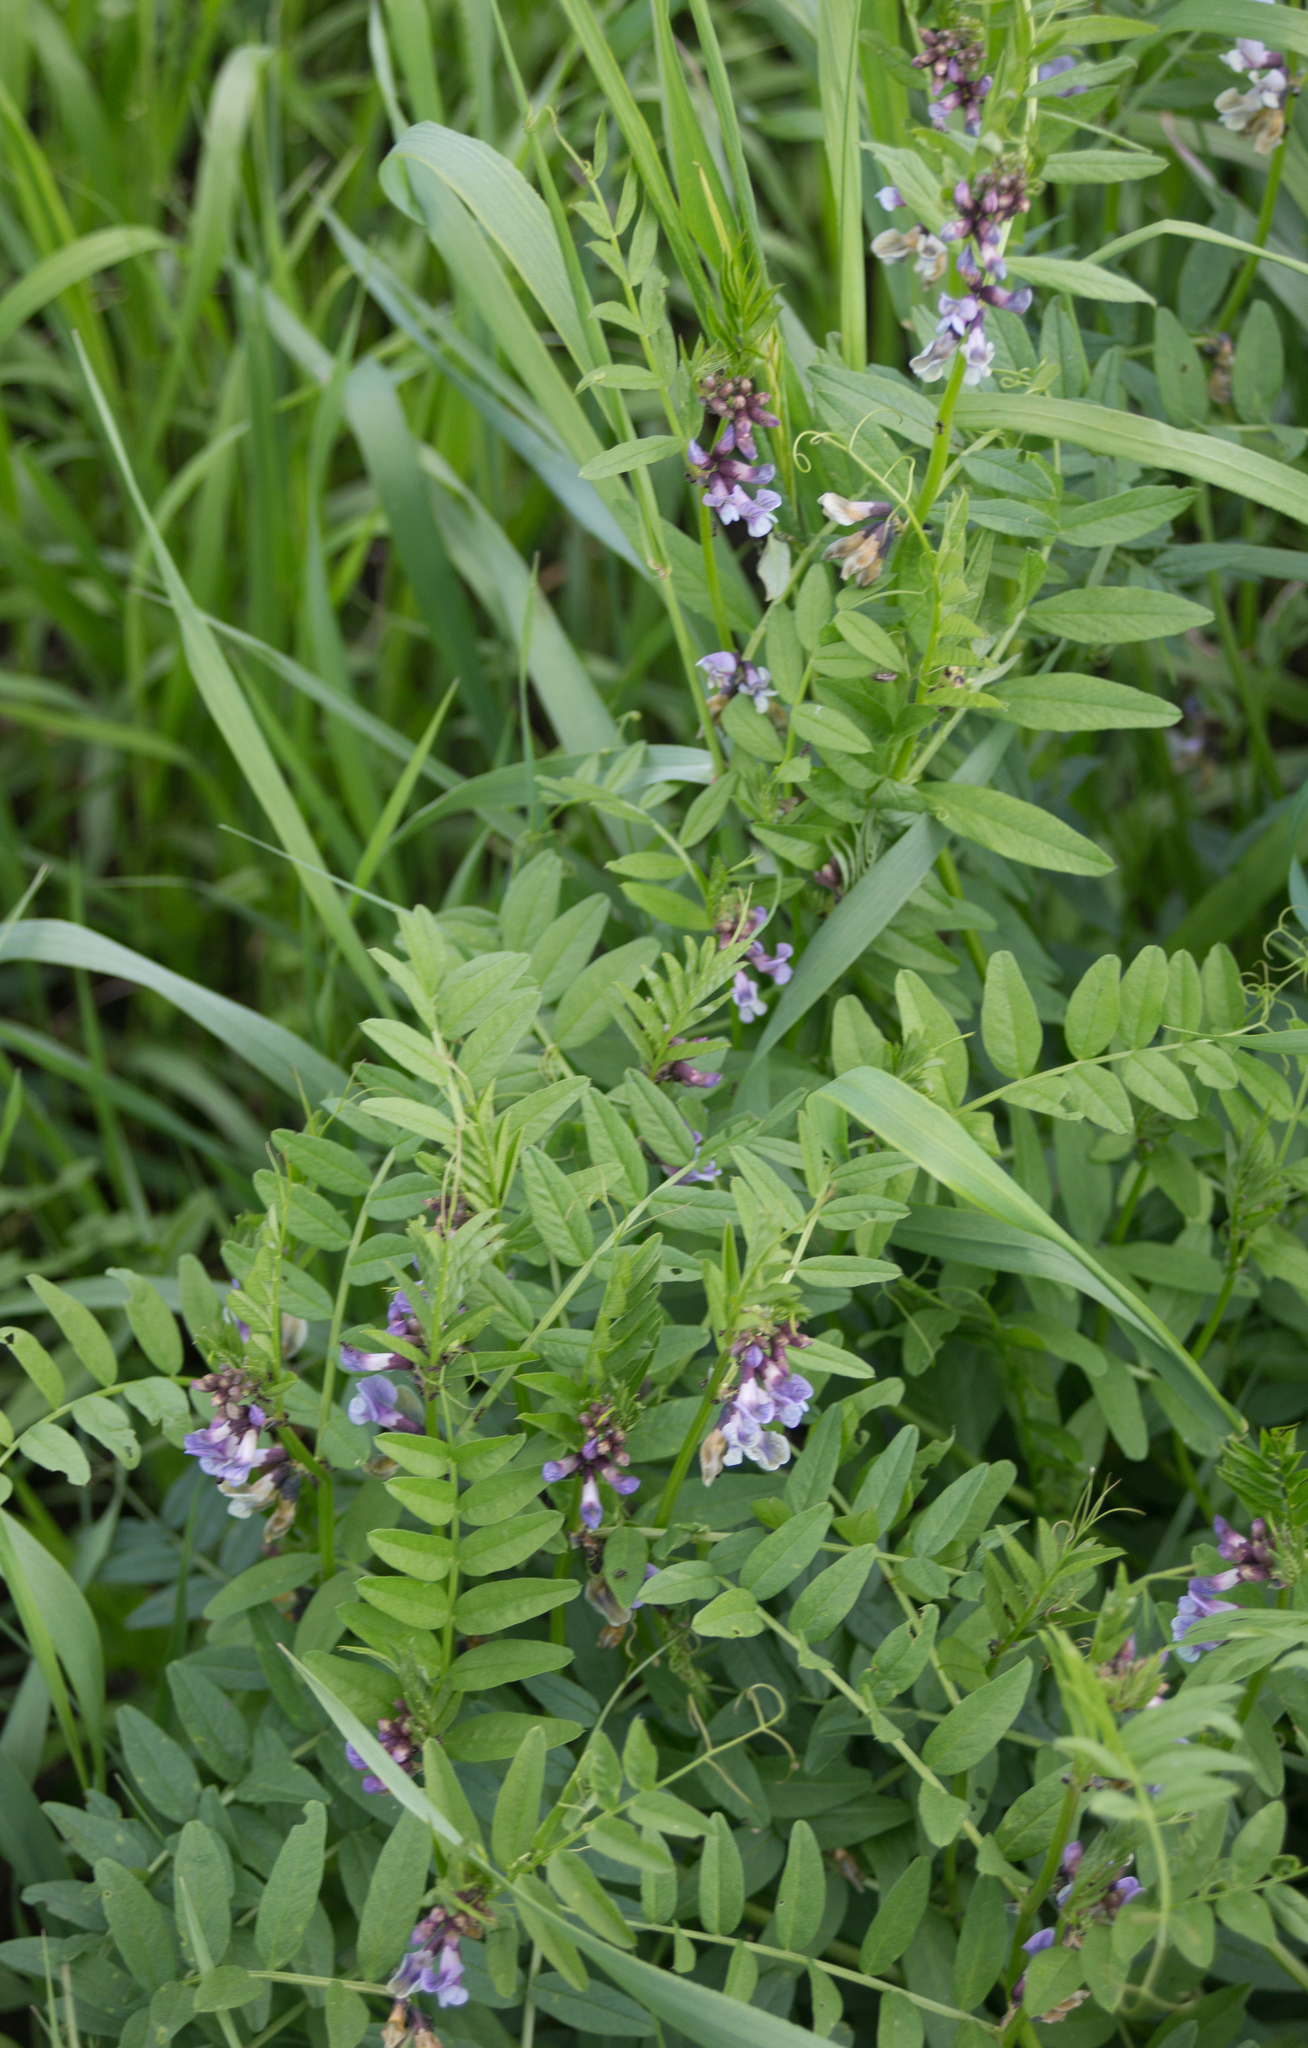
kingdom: Plantae
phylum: Tracheophyta
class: Magnoliopsida
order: Fabales
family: Fabaceae
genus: Vicia
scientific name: Vicia sepium
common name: Bush vetch
